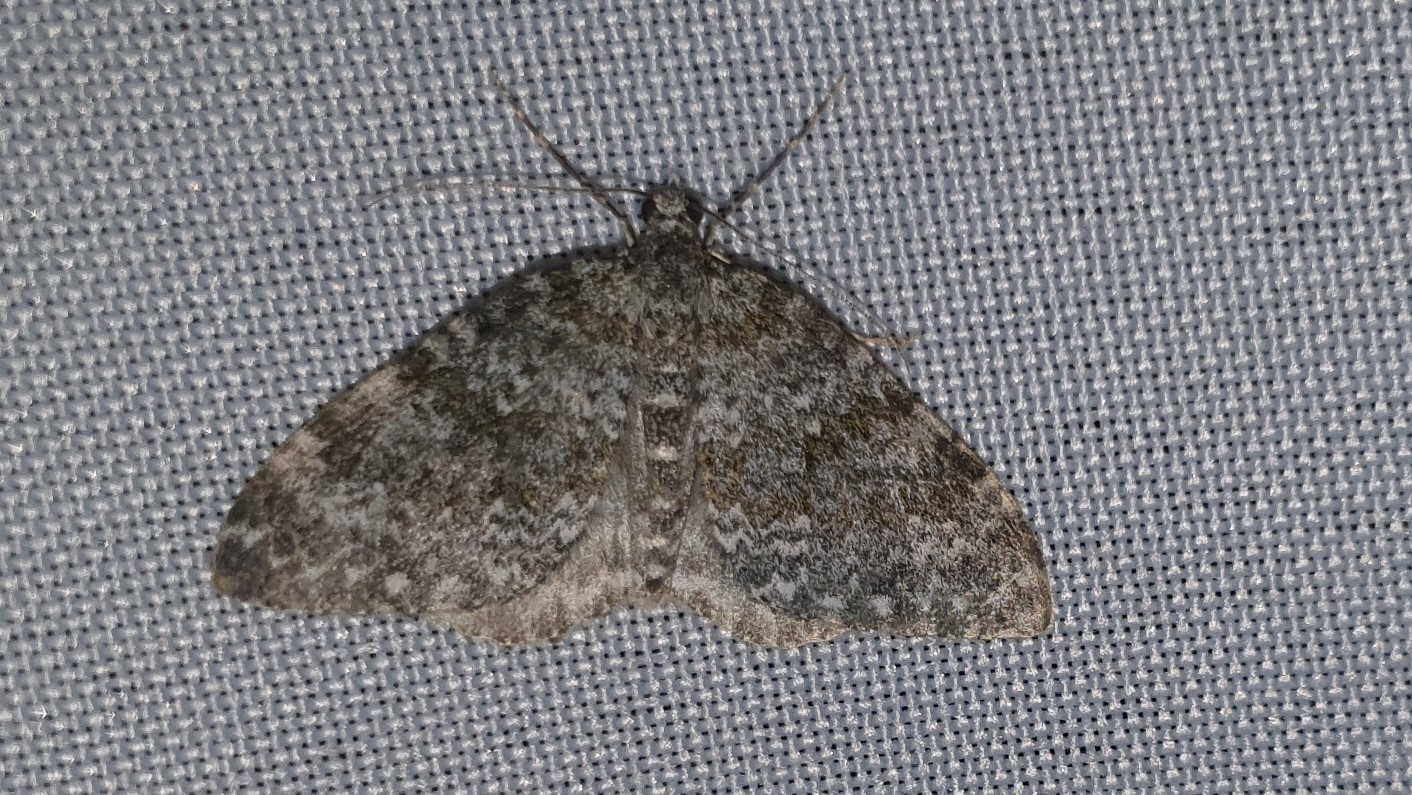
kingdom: Animalia
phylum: Arthropoda
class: Insecta
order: Lepidoptera
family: Geometridae
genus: Entephria
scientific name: Entephria caeruleata
